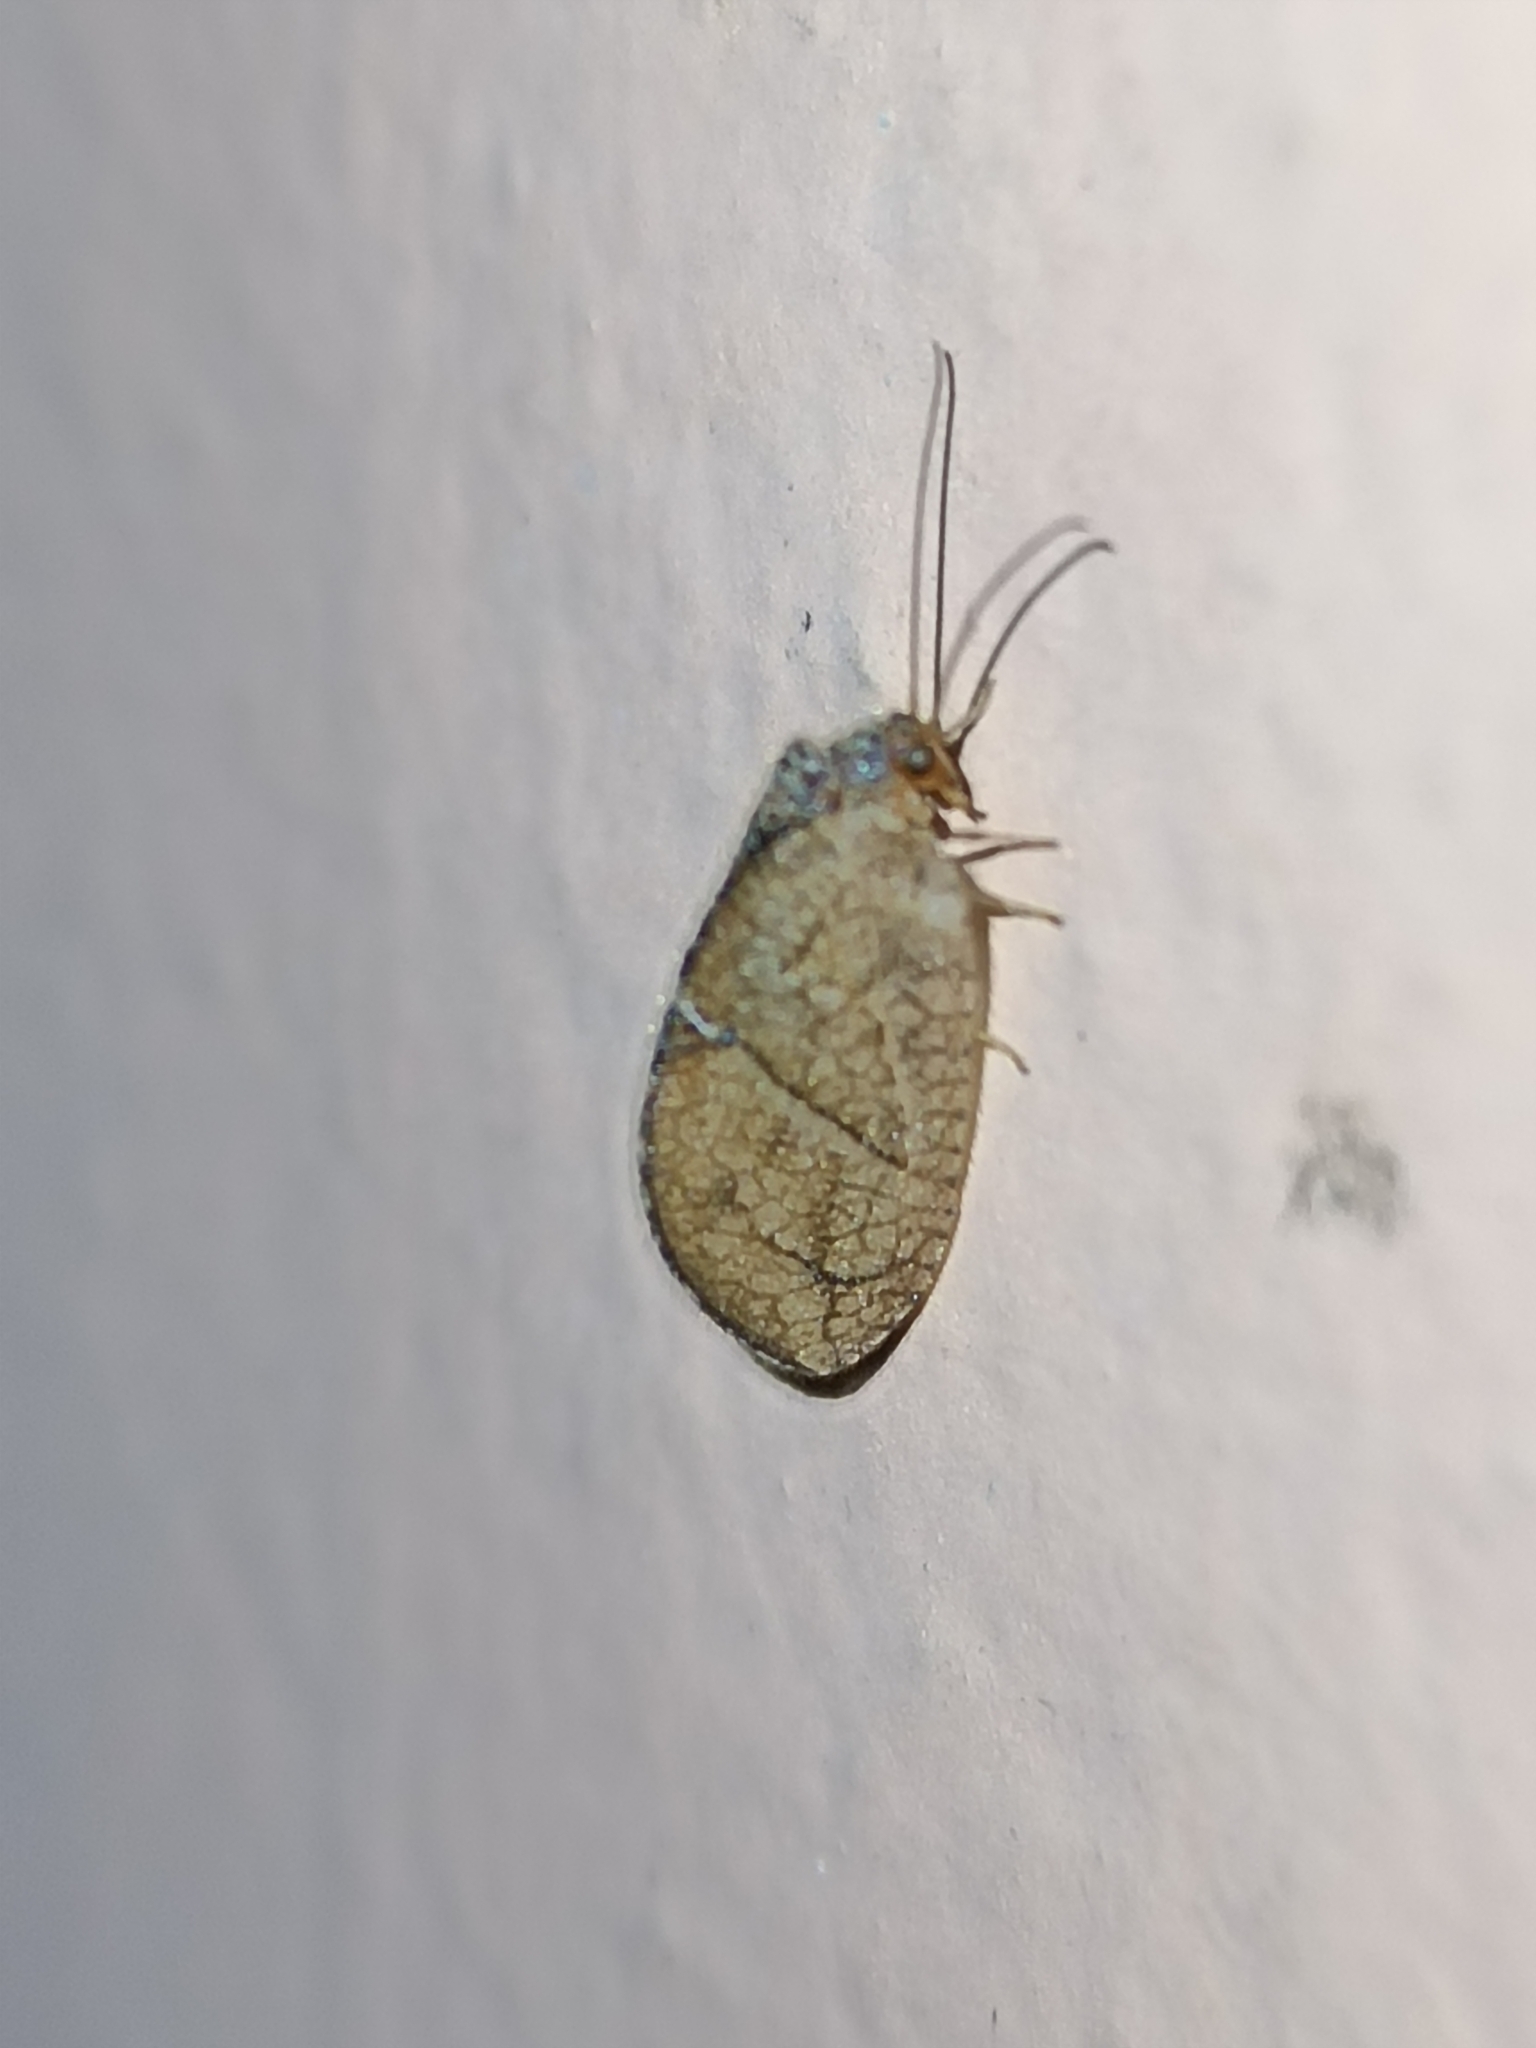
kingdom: Animalia
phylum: Arthropoda
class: Insecta
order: Neuroptera
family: Hemerobiidae
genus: Megalomus
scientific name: Megalomus moestus
